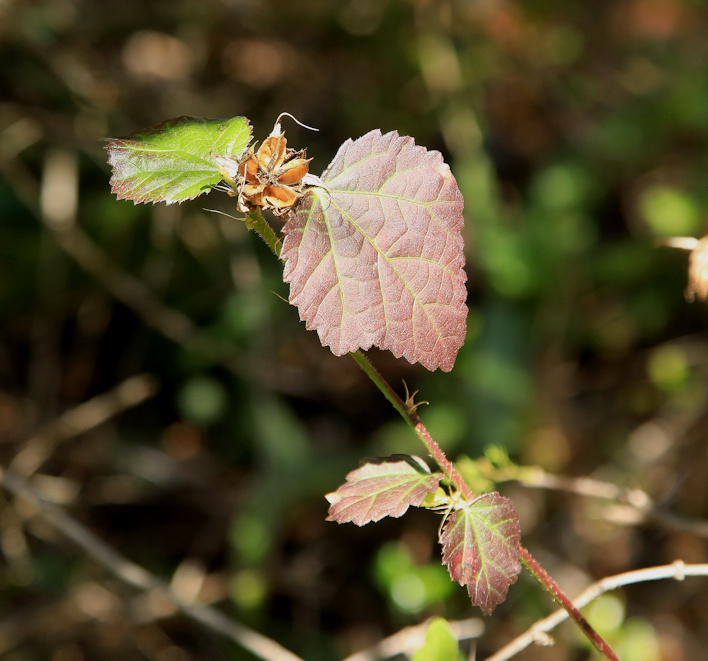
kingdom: Plantae
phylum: Tracheophyta
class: Magnoliopsida
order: Malvales
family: Malvaceae
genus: Hibiscus
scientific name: Hibiscus calyphyllus
